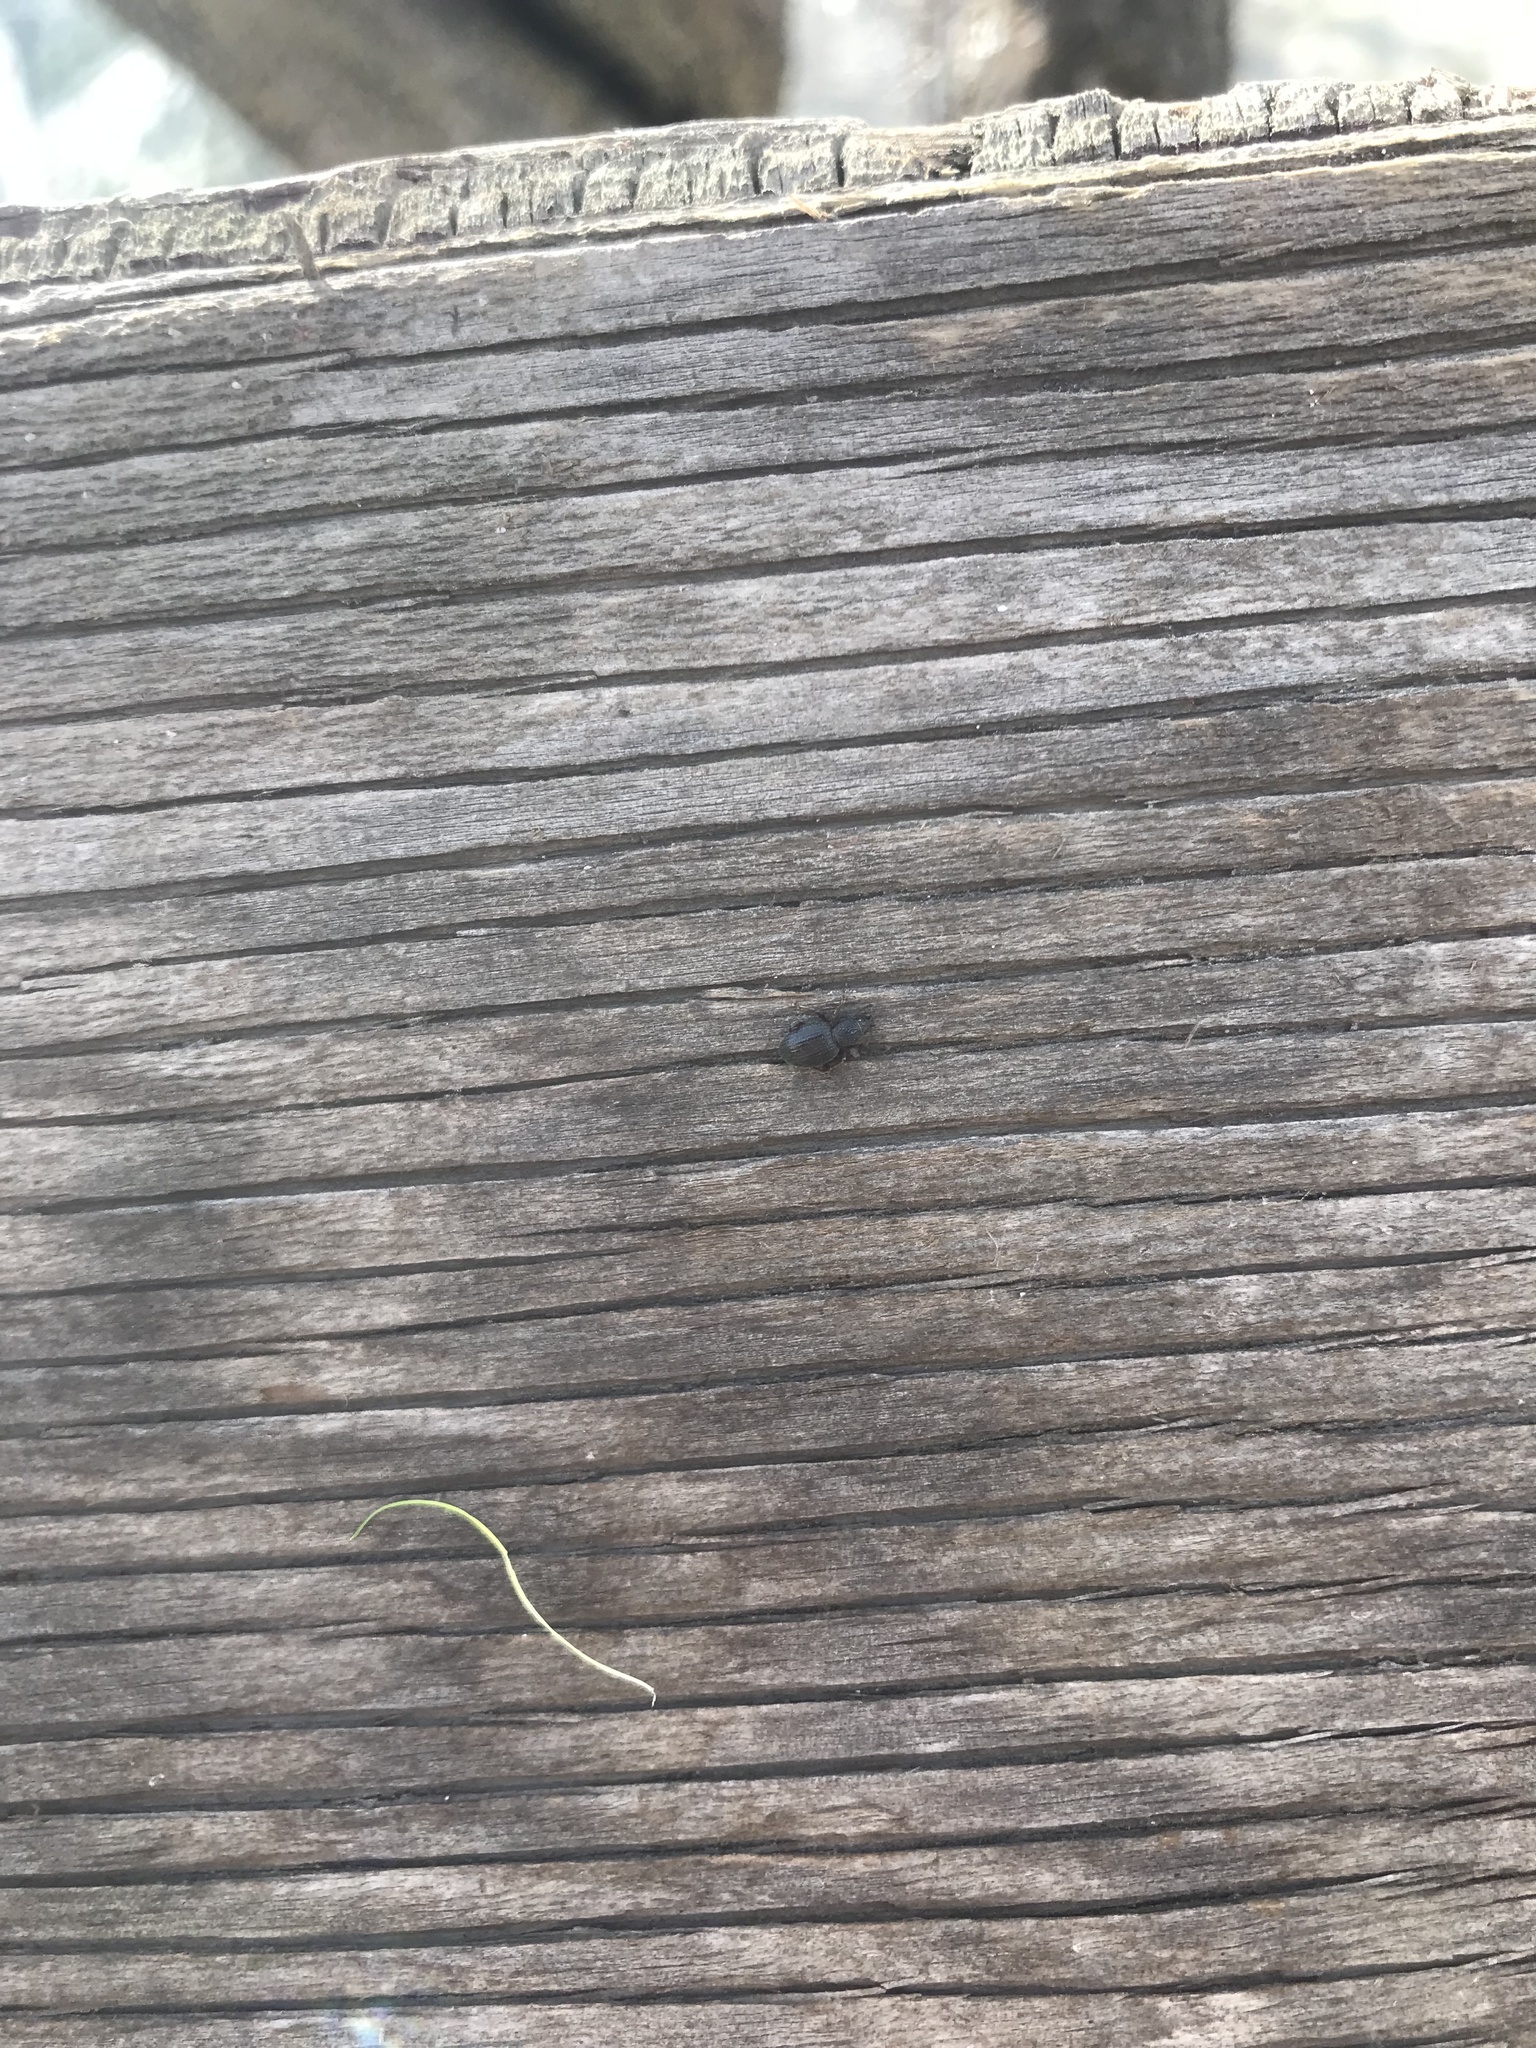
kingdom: Animalia
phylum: Arthropoda
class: Insecta
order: Coleoptera
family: Curculionidae
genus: Otiorhynchus
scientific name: Otiorhynchus ovatus
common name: Strawberry root weevil
